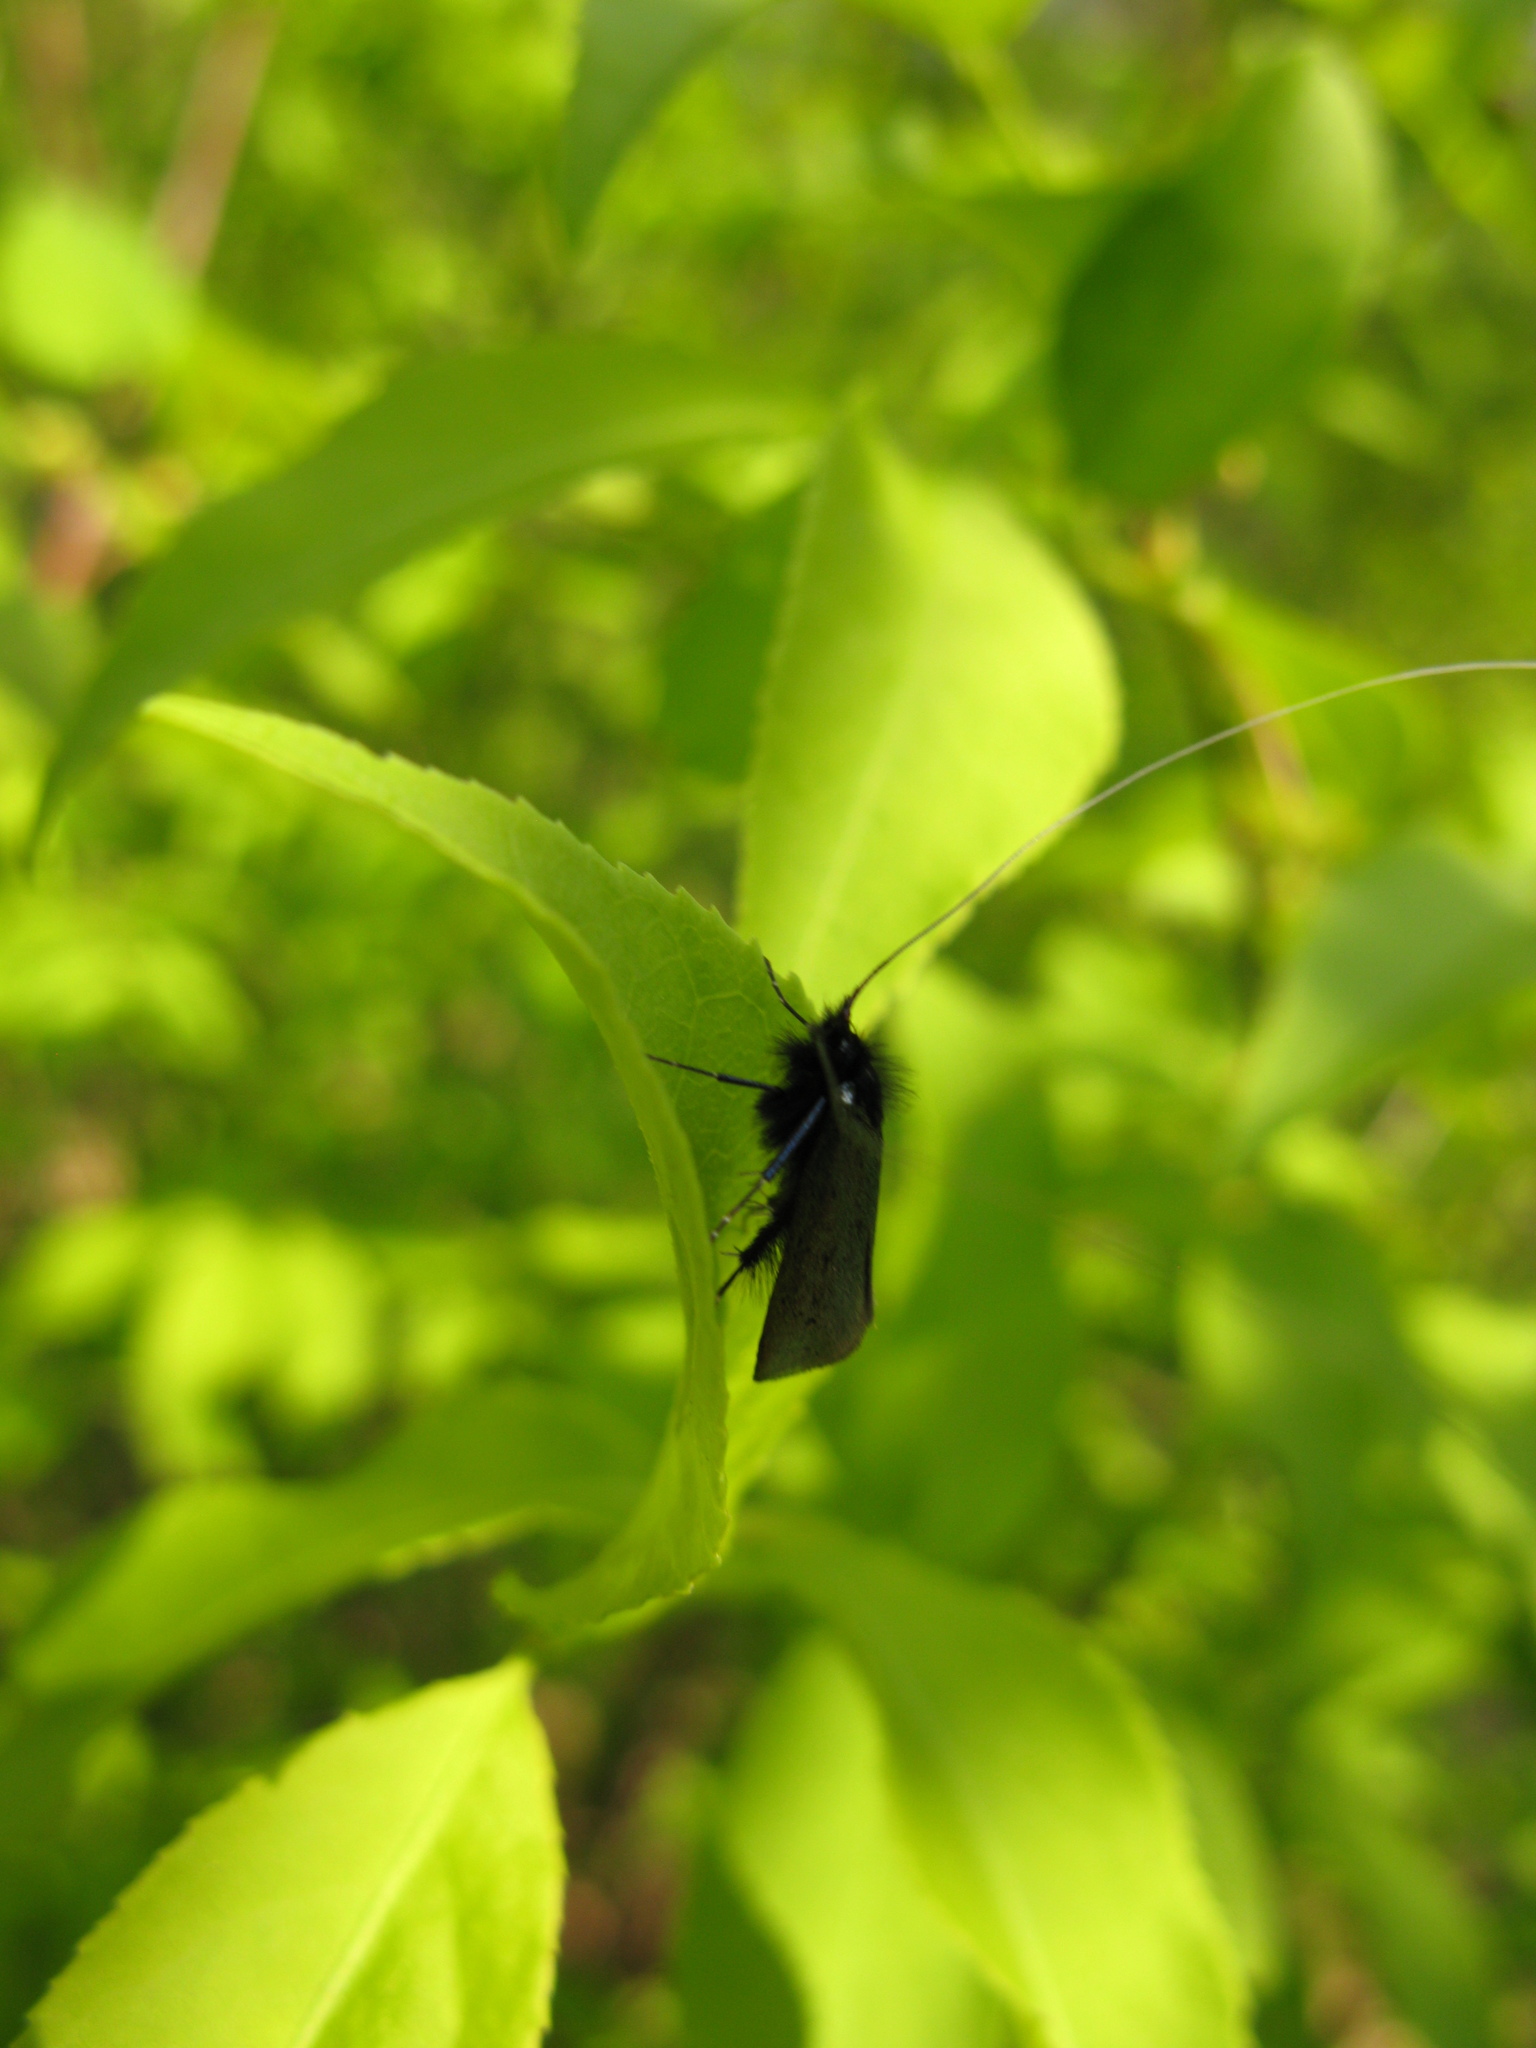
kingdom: Animalia
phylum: Arthropoda
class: Insecta
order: Lepidoptera
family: Adelidae
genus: Adela
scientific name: Adela viridella
